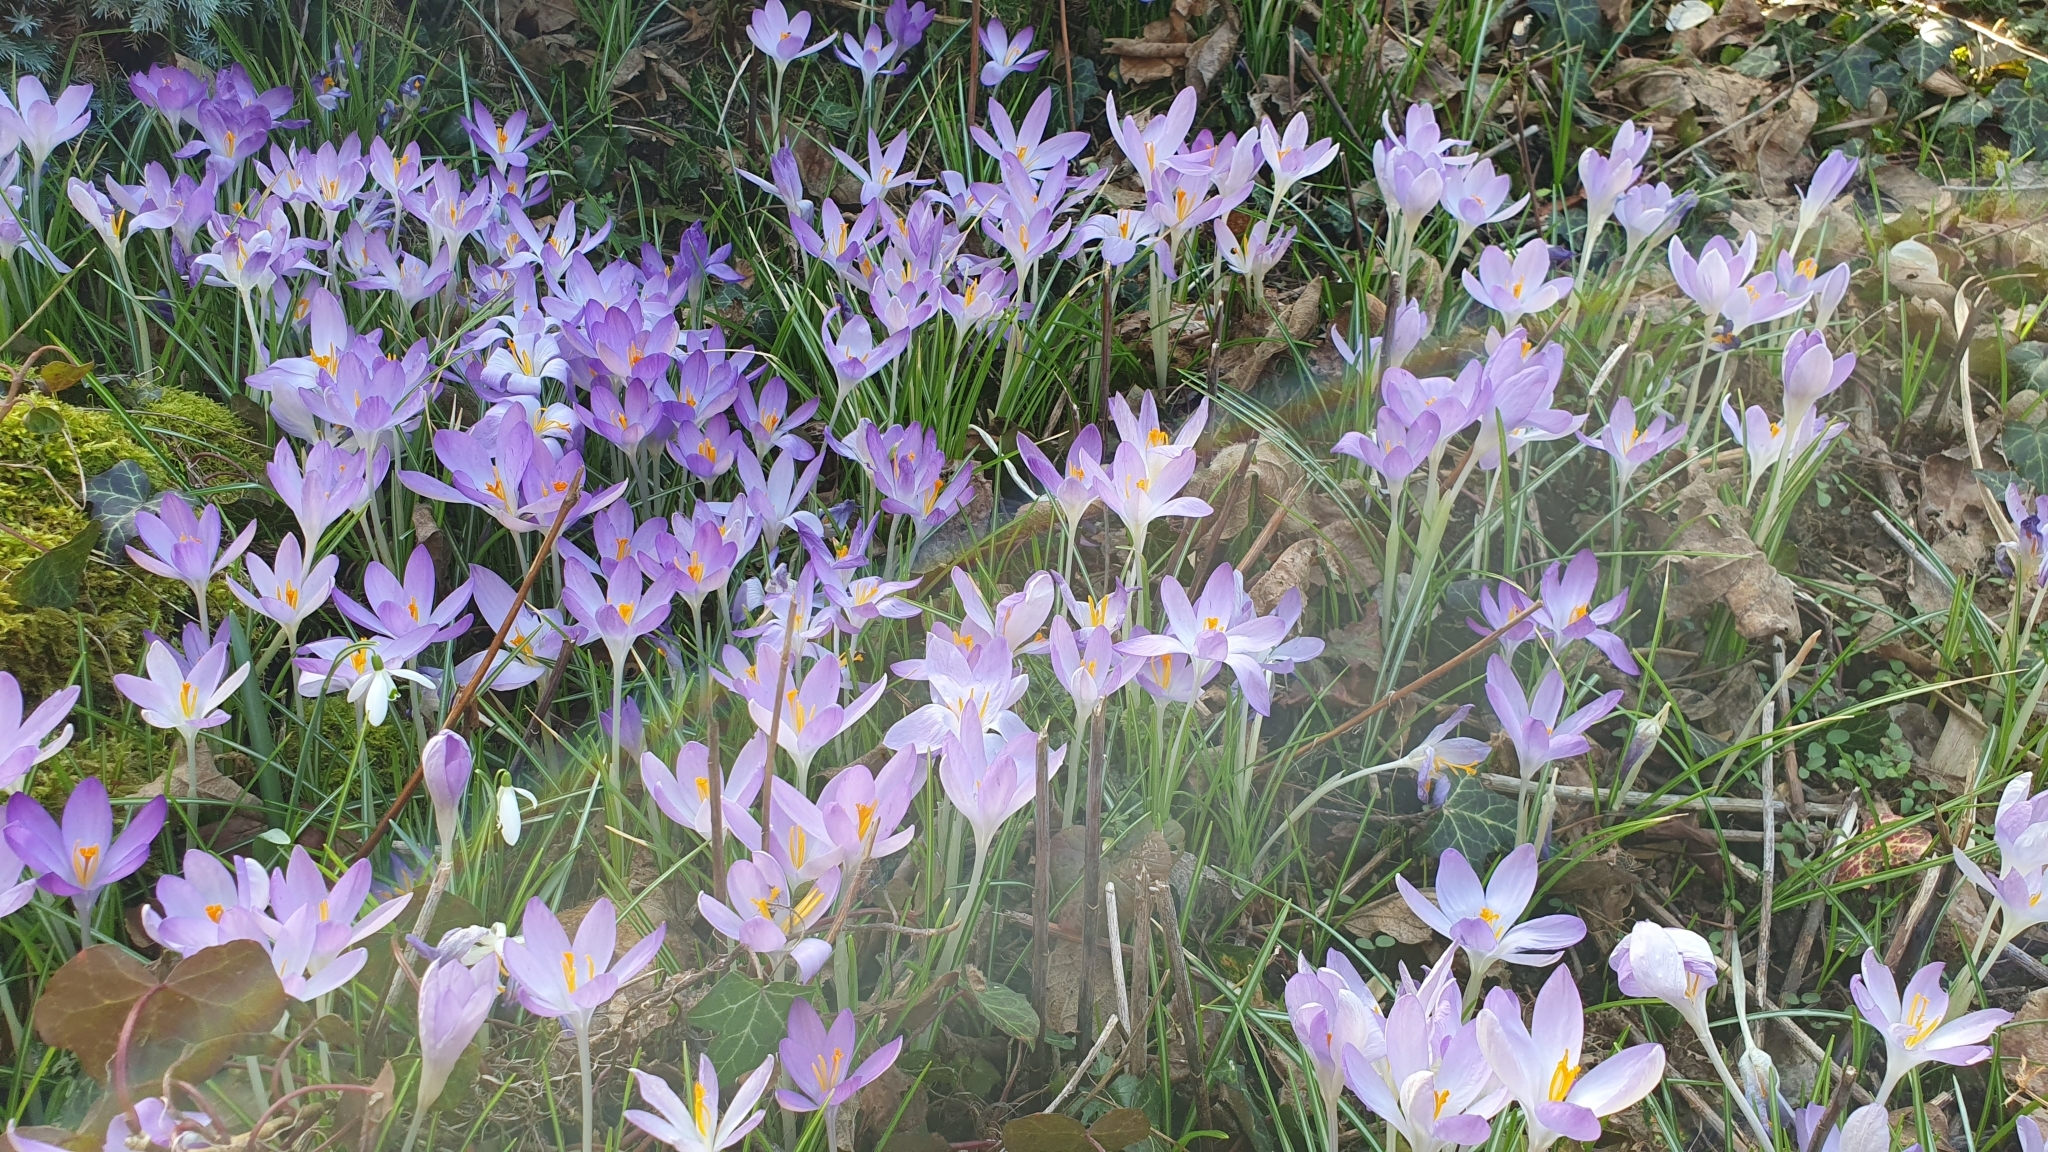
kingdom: Plantae
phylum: Tracheophyta
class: Liliopsida
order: Asparagales
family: Iridaceae
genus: Crocus
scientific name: Crocus tommasinianus
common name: Early crocus
